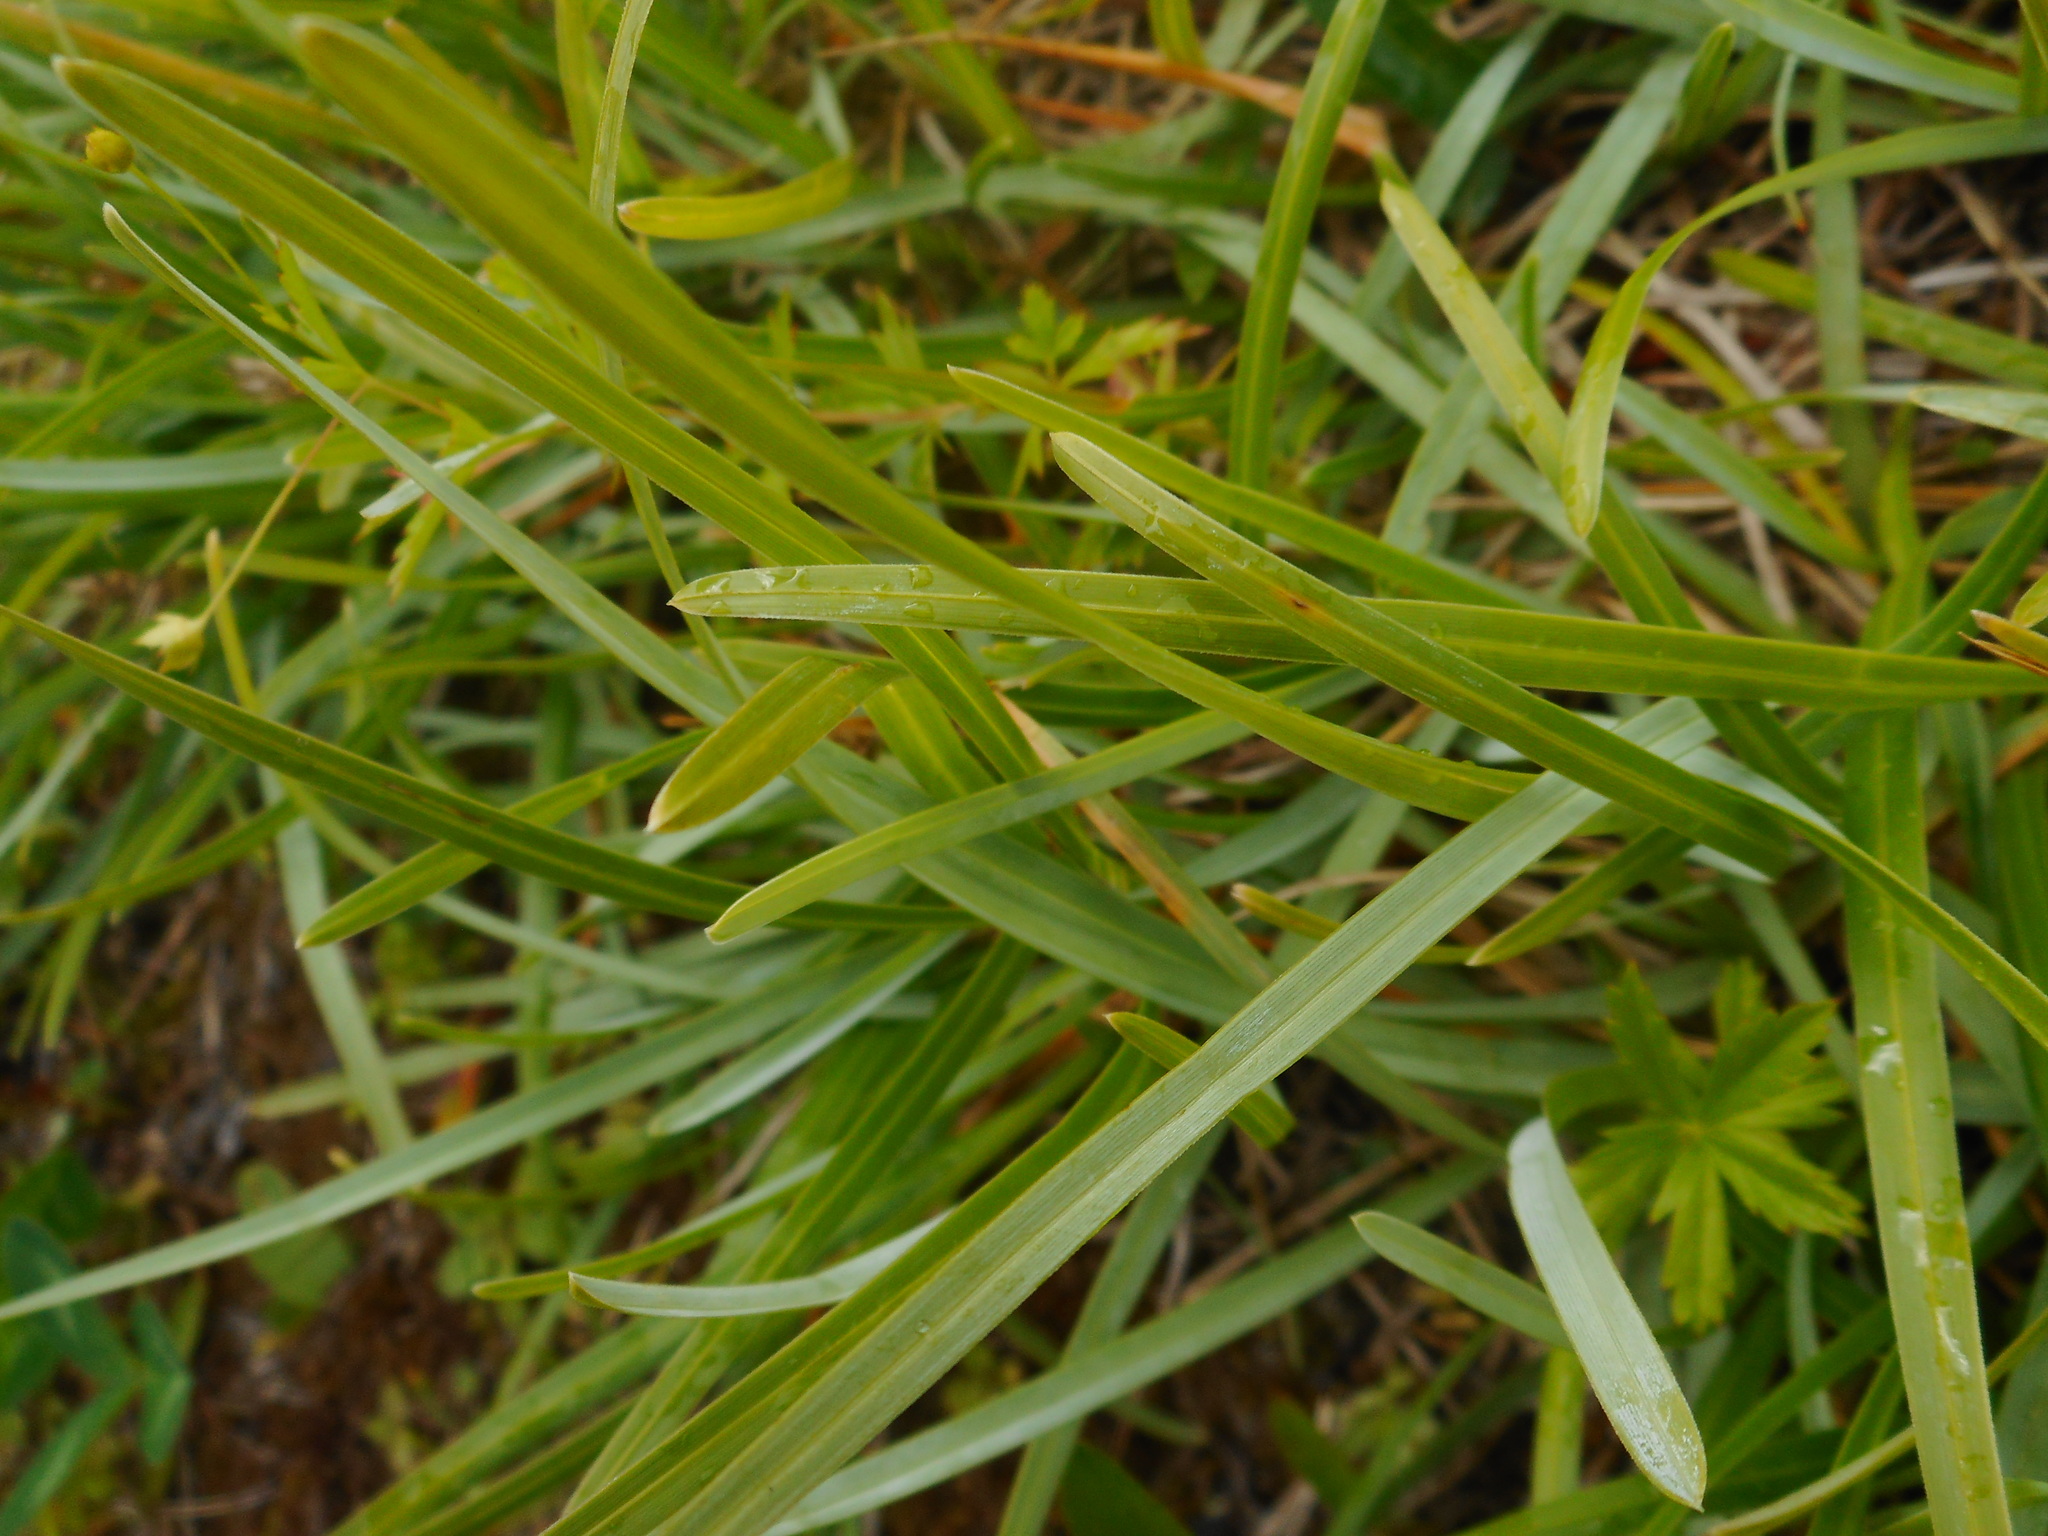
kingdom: Plantae
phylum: Tracheophyta
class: Liliopsida
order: Poales
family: Poaceae
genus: Sesleria
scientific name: Sesleria caerulea
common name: Blue moor-grass
